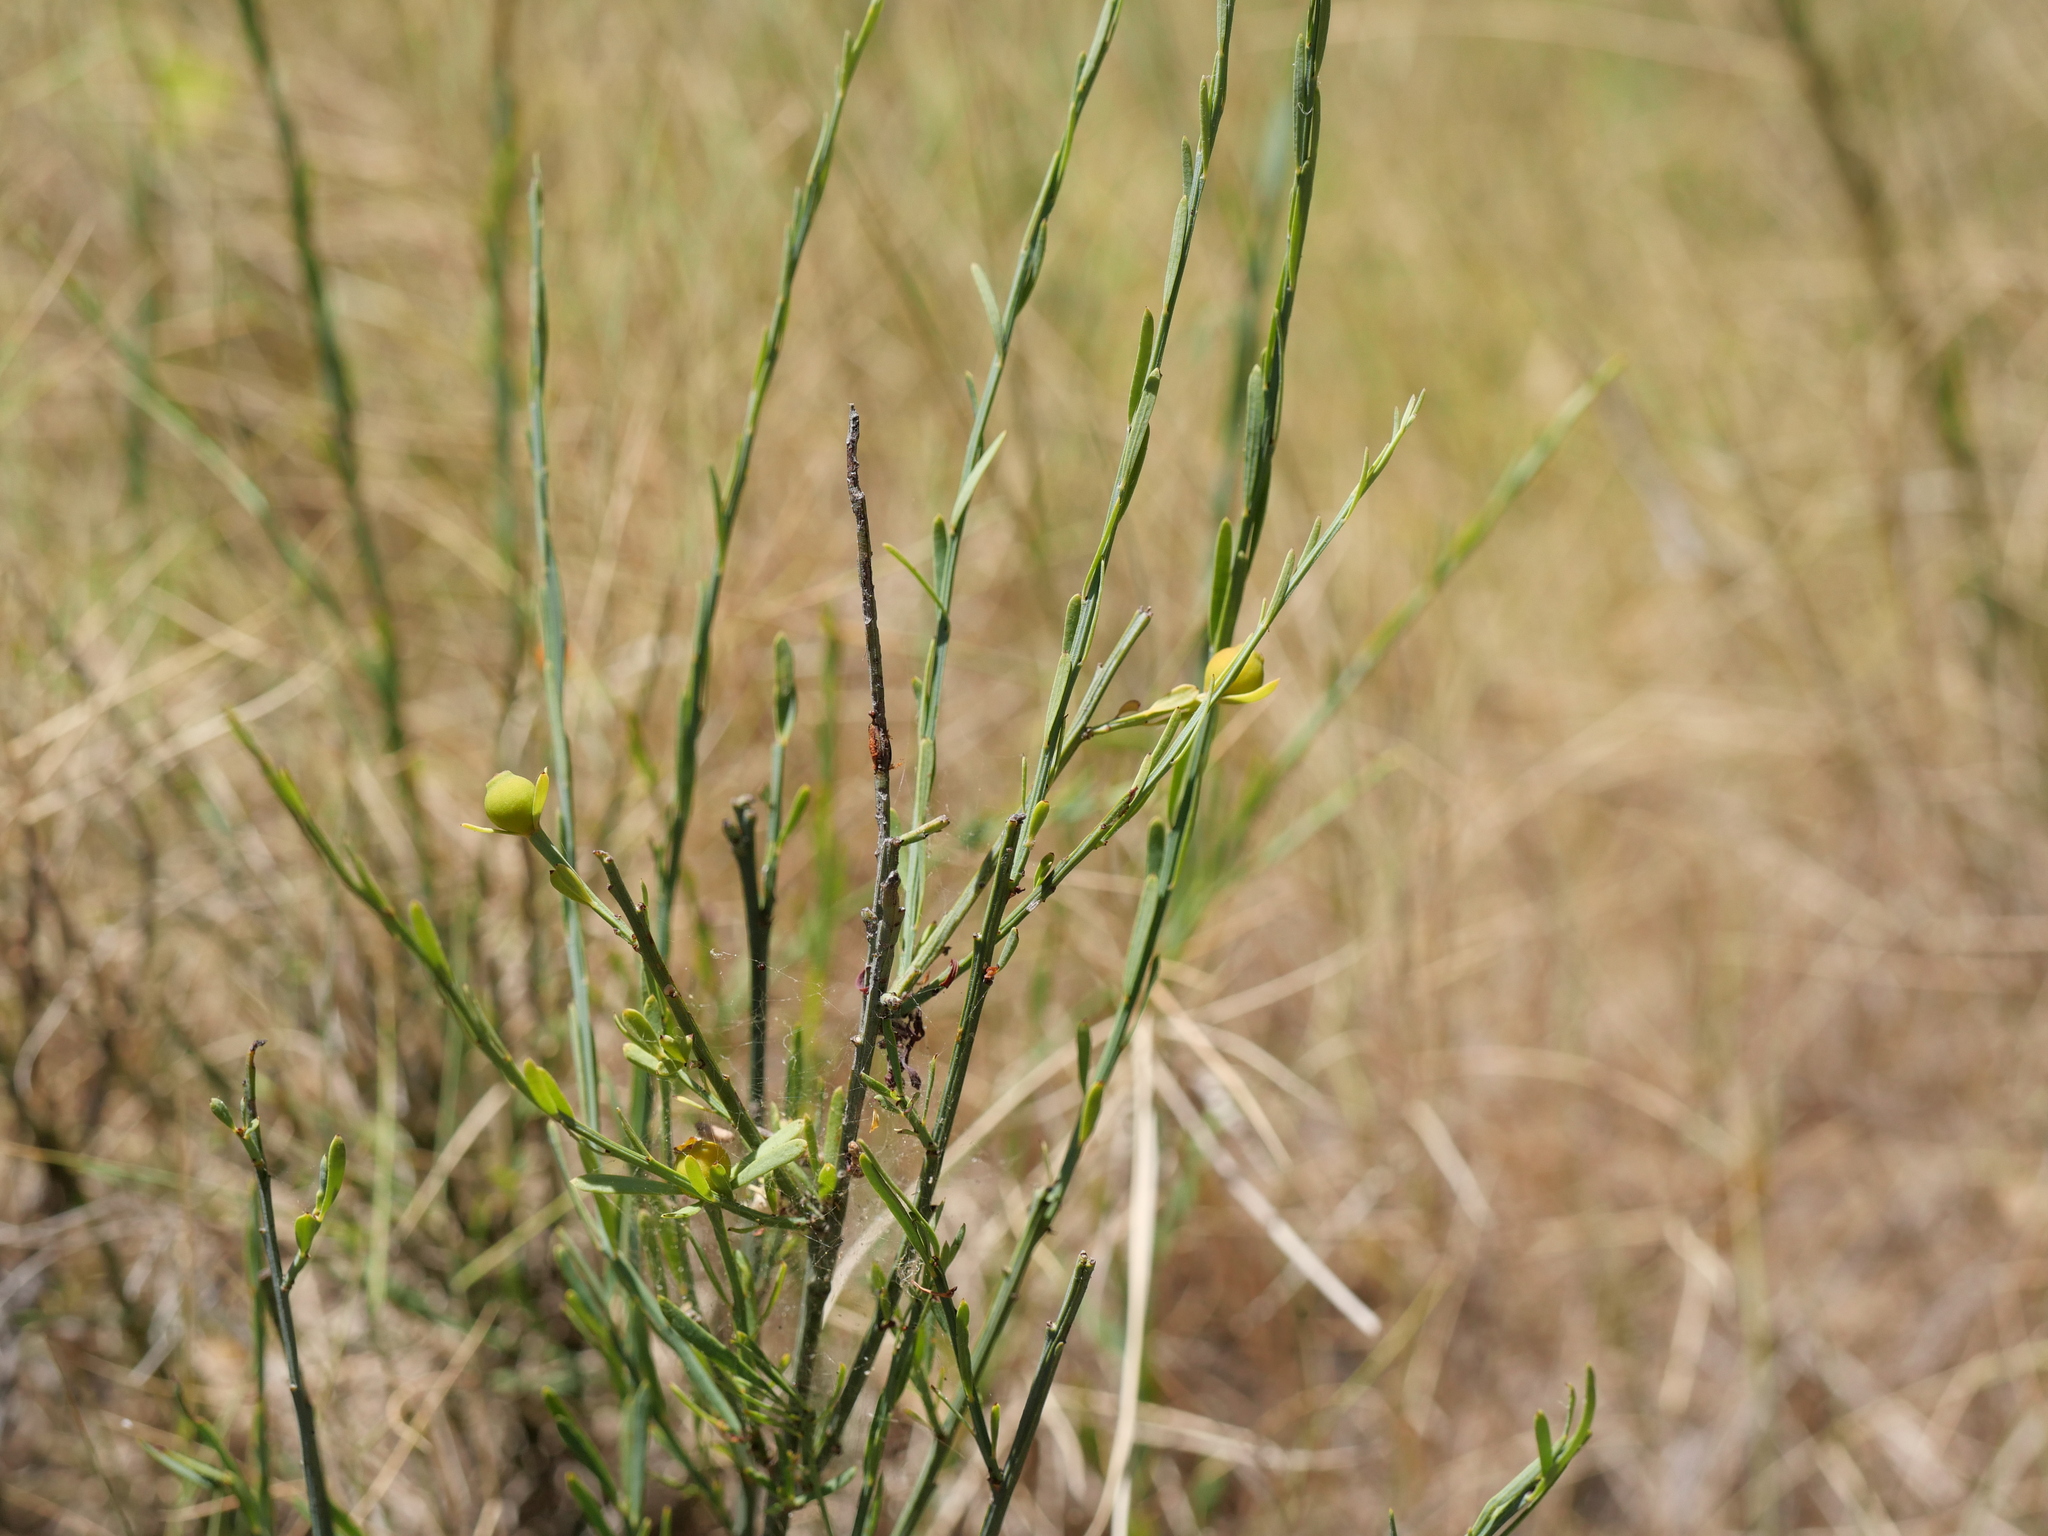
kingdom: Plantae
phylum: Tracheophyta
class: Magnoliopsida
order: Santalales
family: Santalaceae
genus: Osyris
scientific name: Osyris alba
